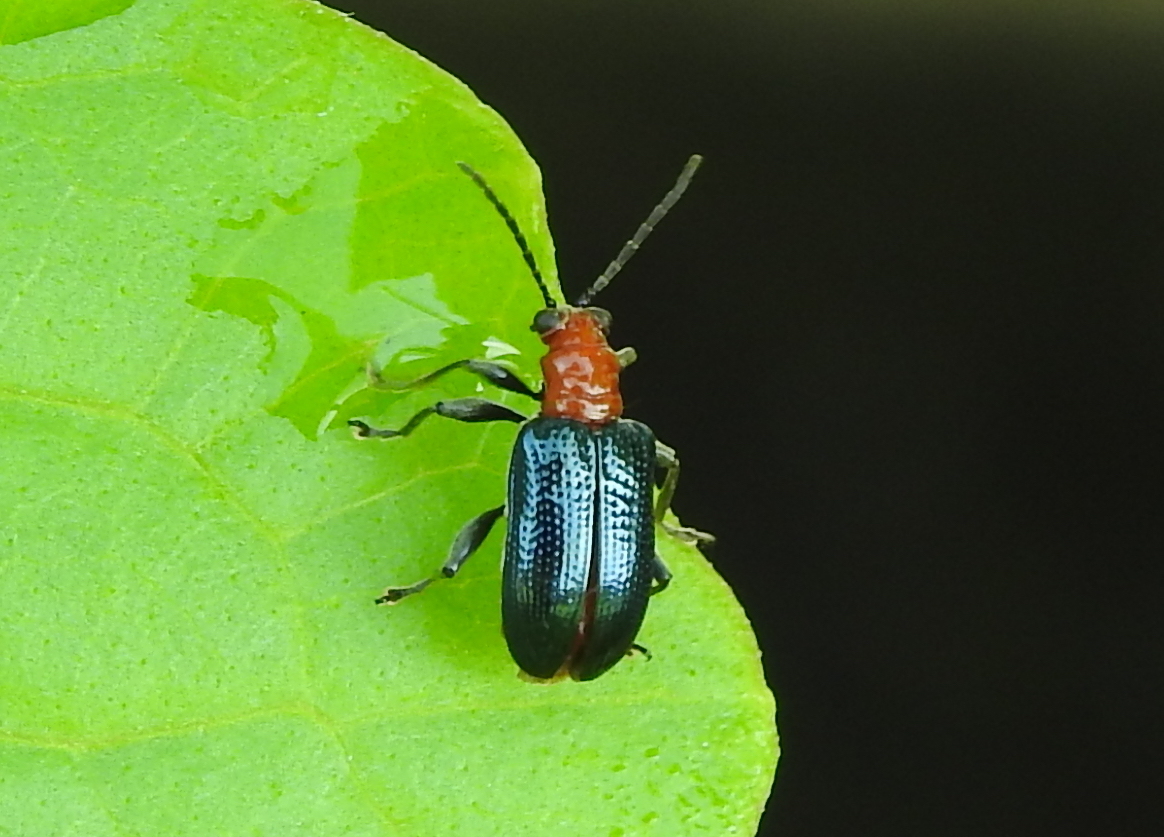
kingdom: Animalia
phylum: Arthropoda
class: Insecta
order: Coleoptera
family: Chrysomelidae
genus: Lema
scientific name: Lema praeusta
